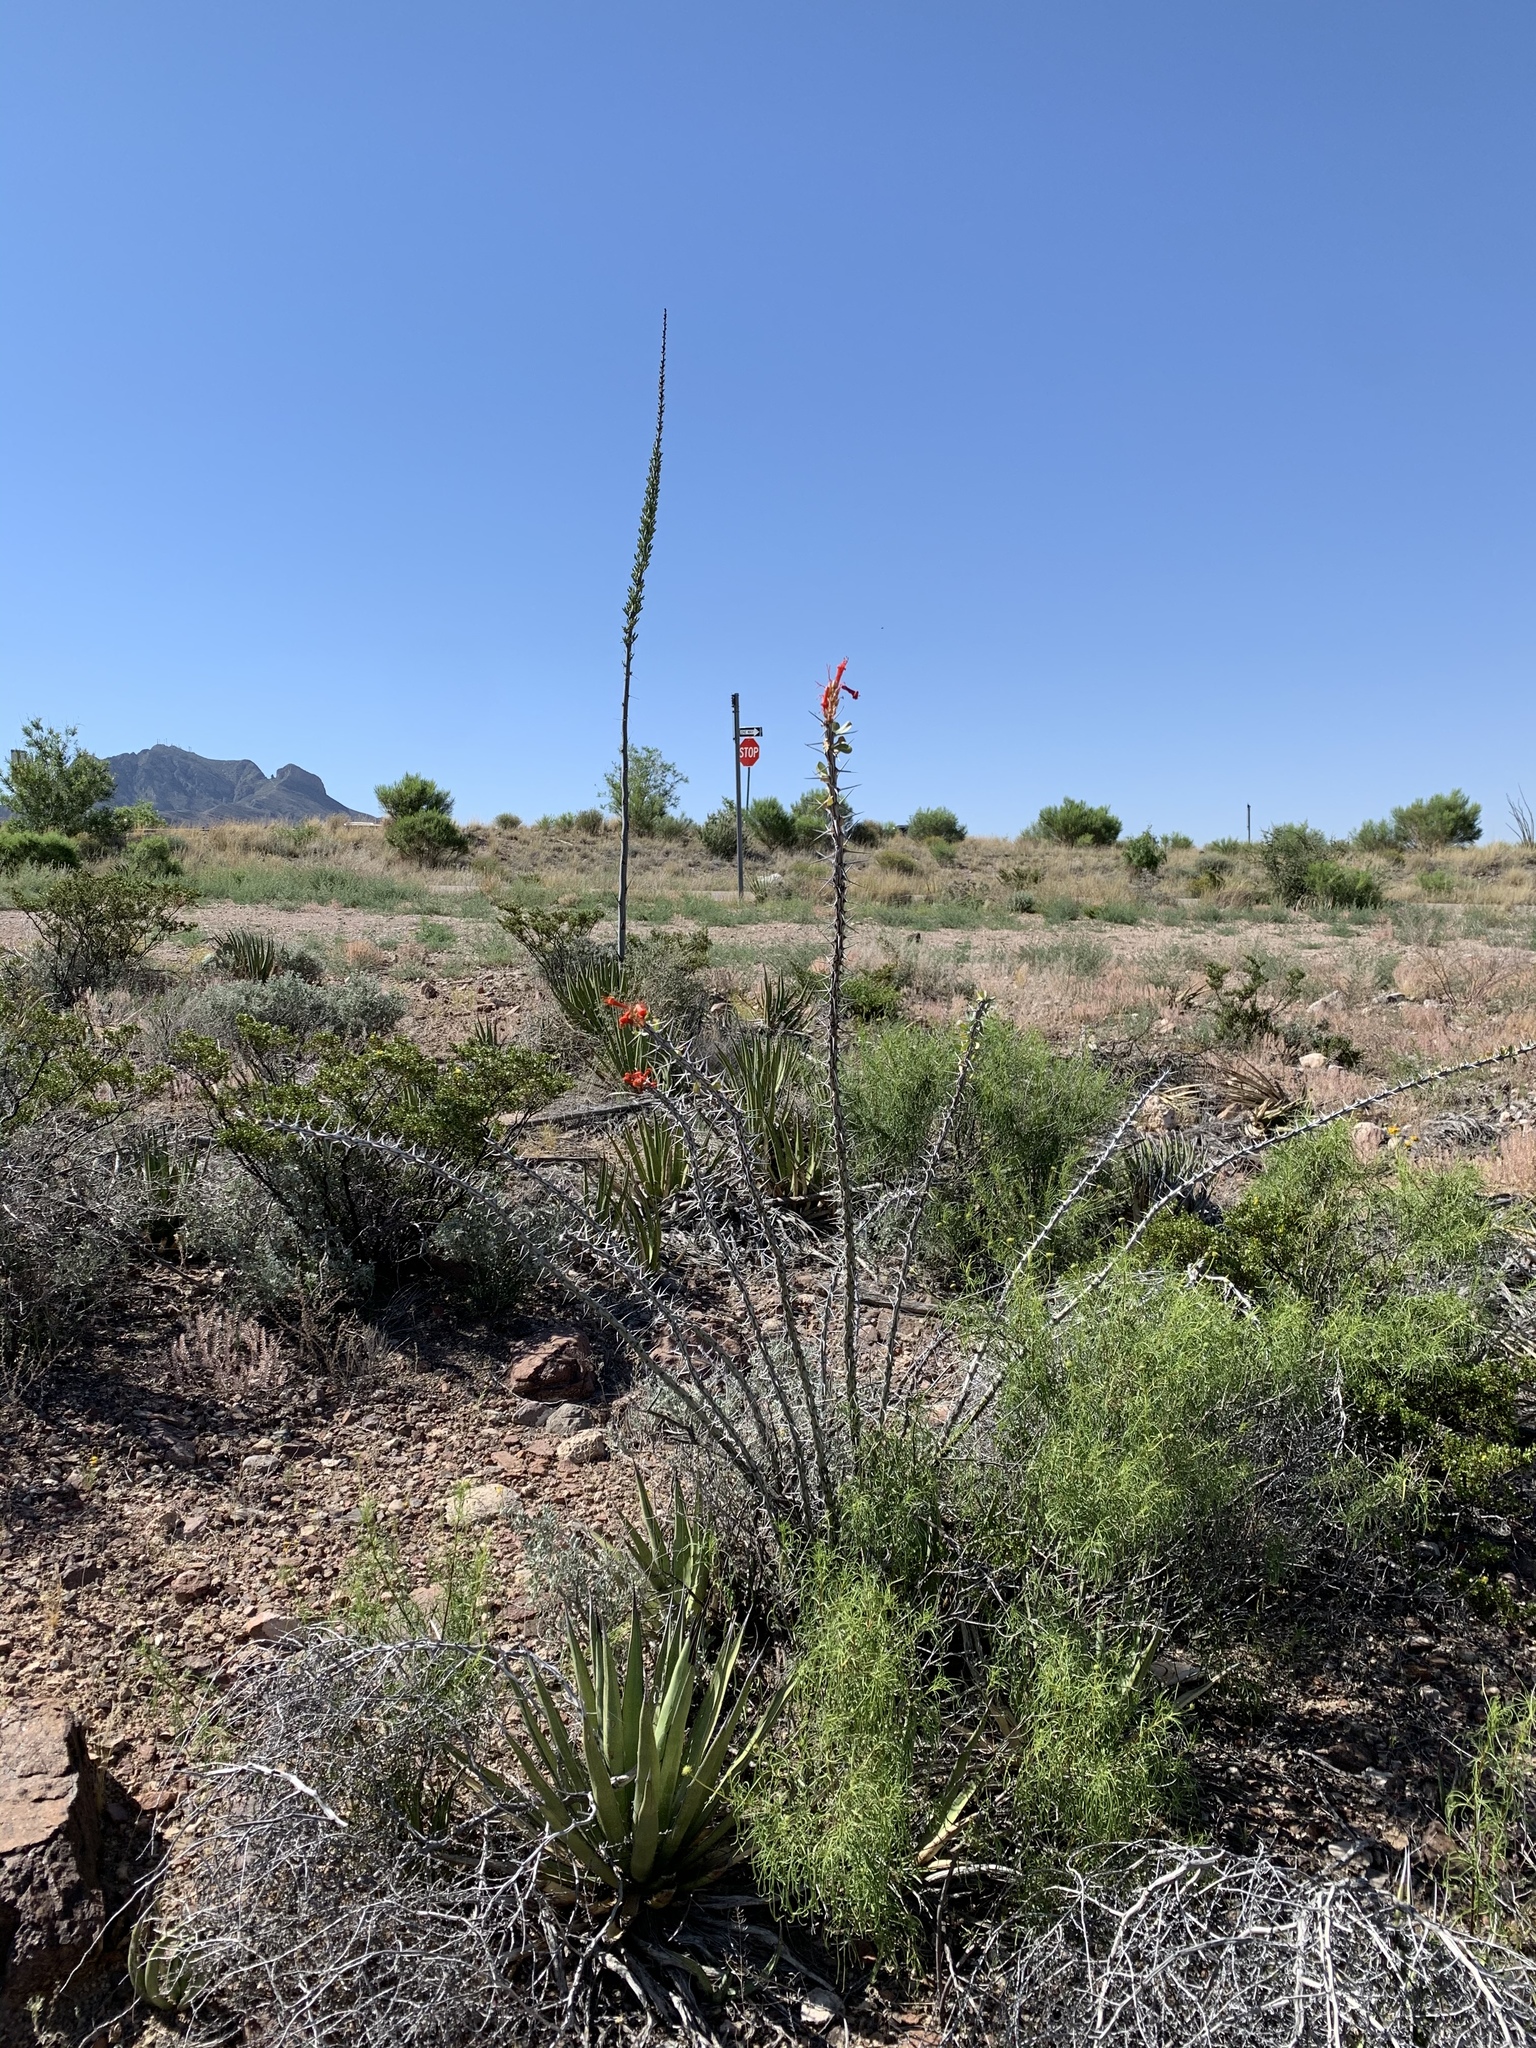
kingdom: Plantae
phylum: Tracheophyta
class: Magnoliopsida
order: Ericales
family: Fouquieriaceae
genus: Fouquieria
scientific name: Fouquieria splendens
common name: Vine-cactus
